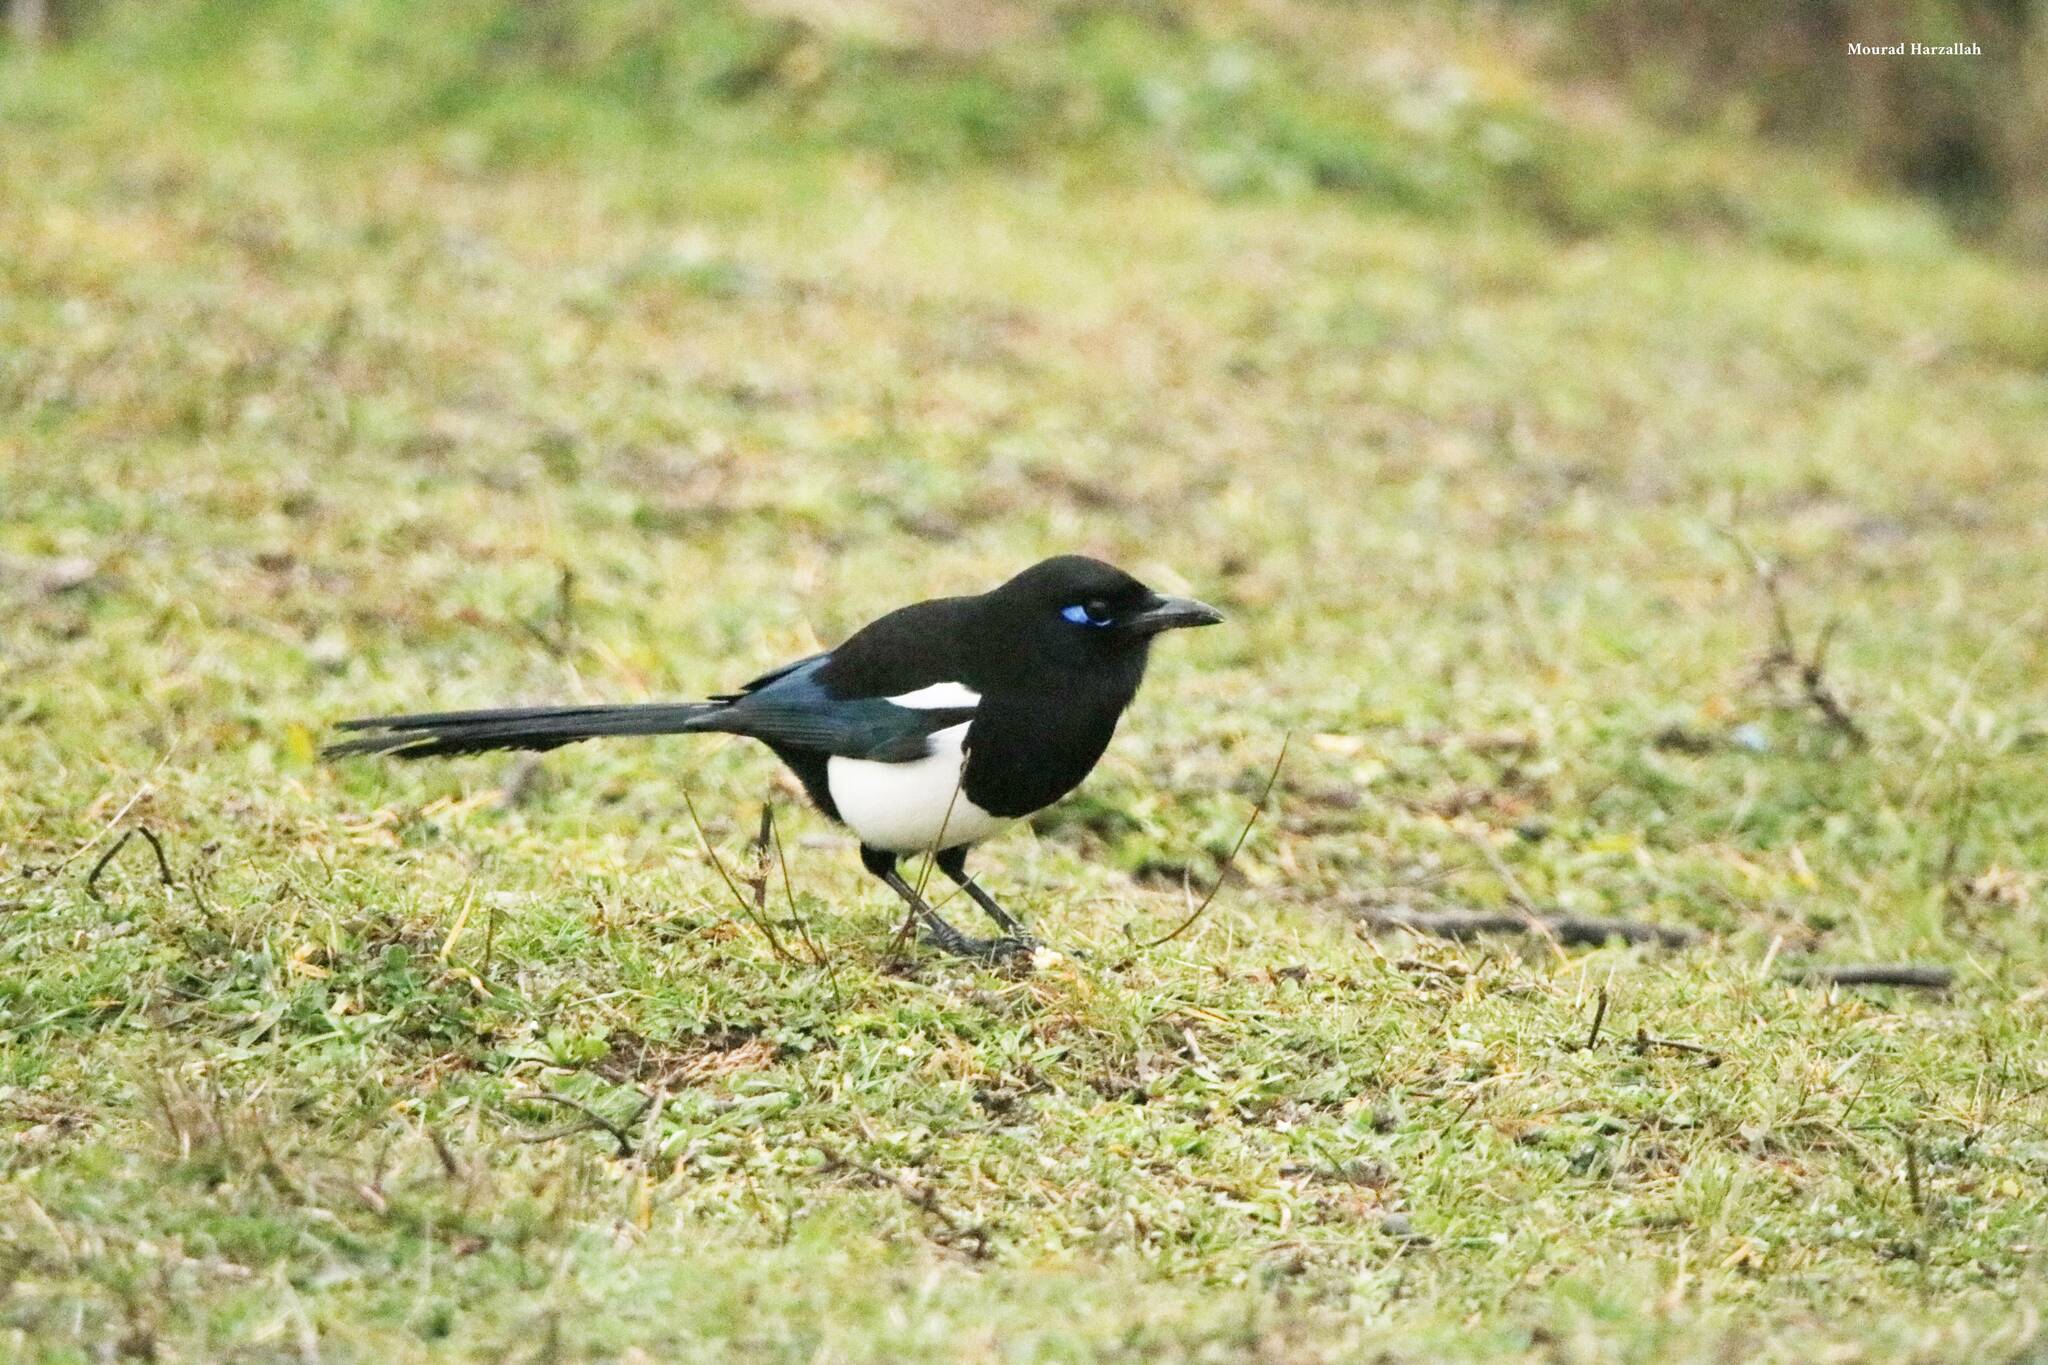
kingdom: Animalia
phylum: Chordata
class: Aves
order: Passeriformes
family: Corvidae
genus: Pica
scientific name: Pica mauritanica
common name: Maghreb magpie
